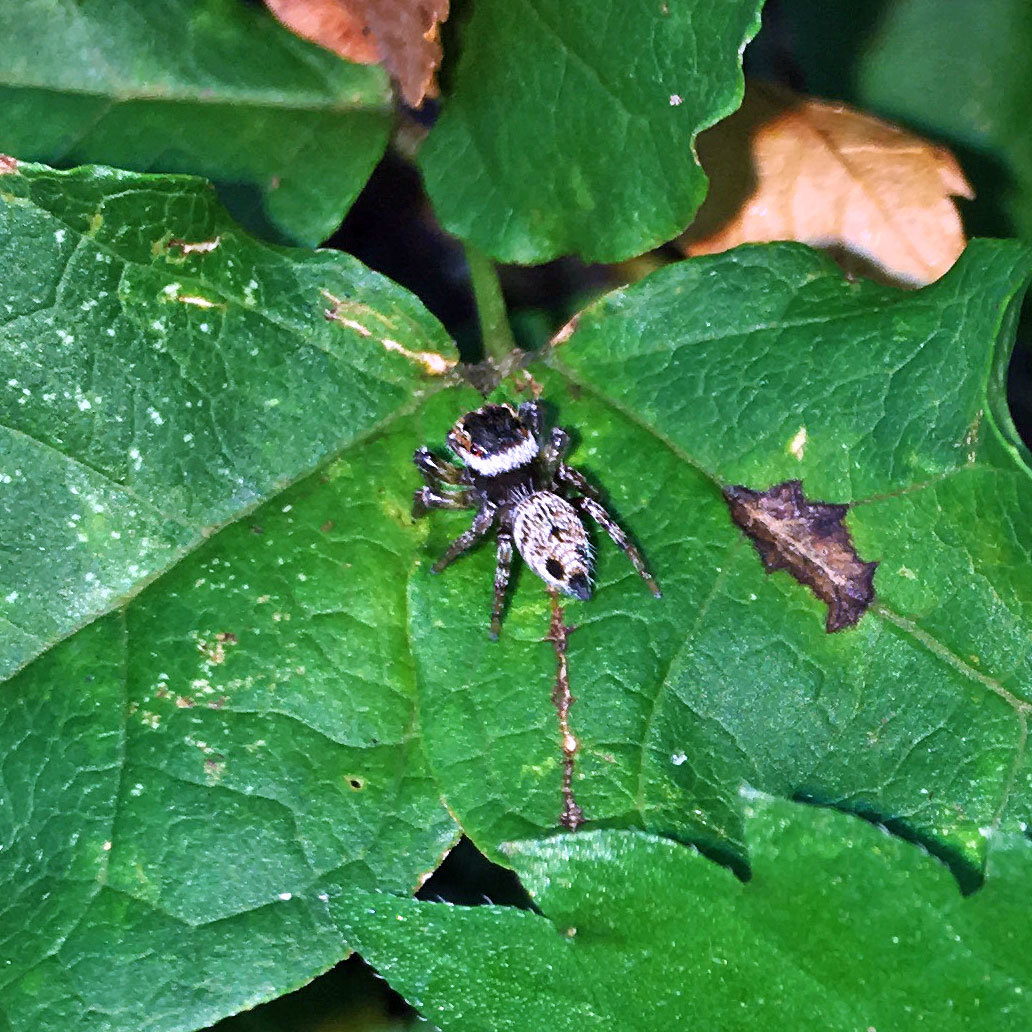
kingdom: Animalia
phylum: Arthropoda
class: Arachnida
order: Araneae
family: Salticidae
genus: Evarcha
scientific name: Evarcha albaria
